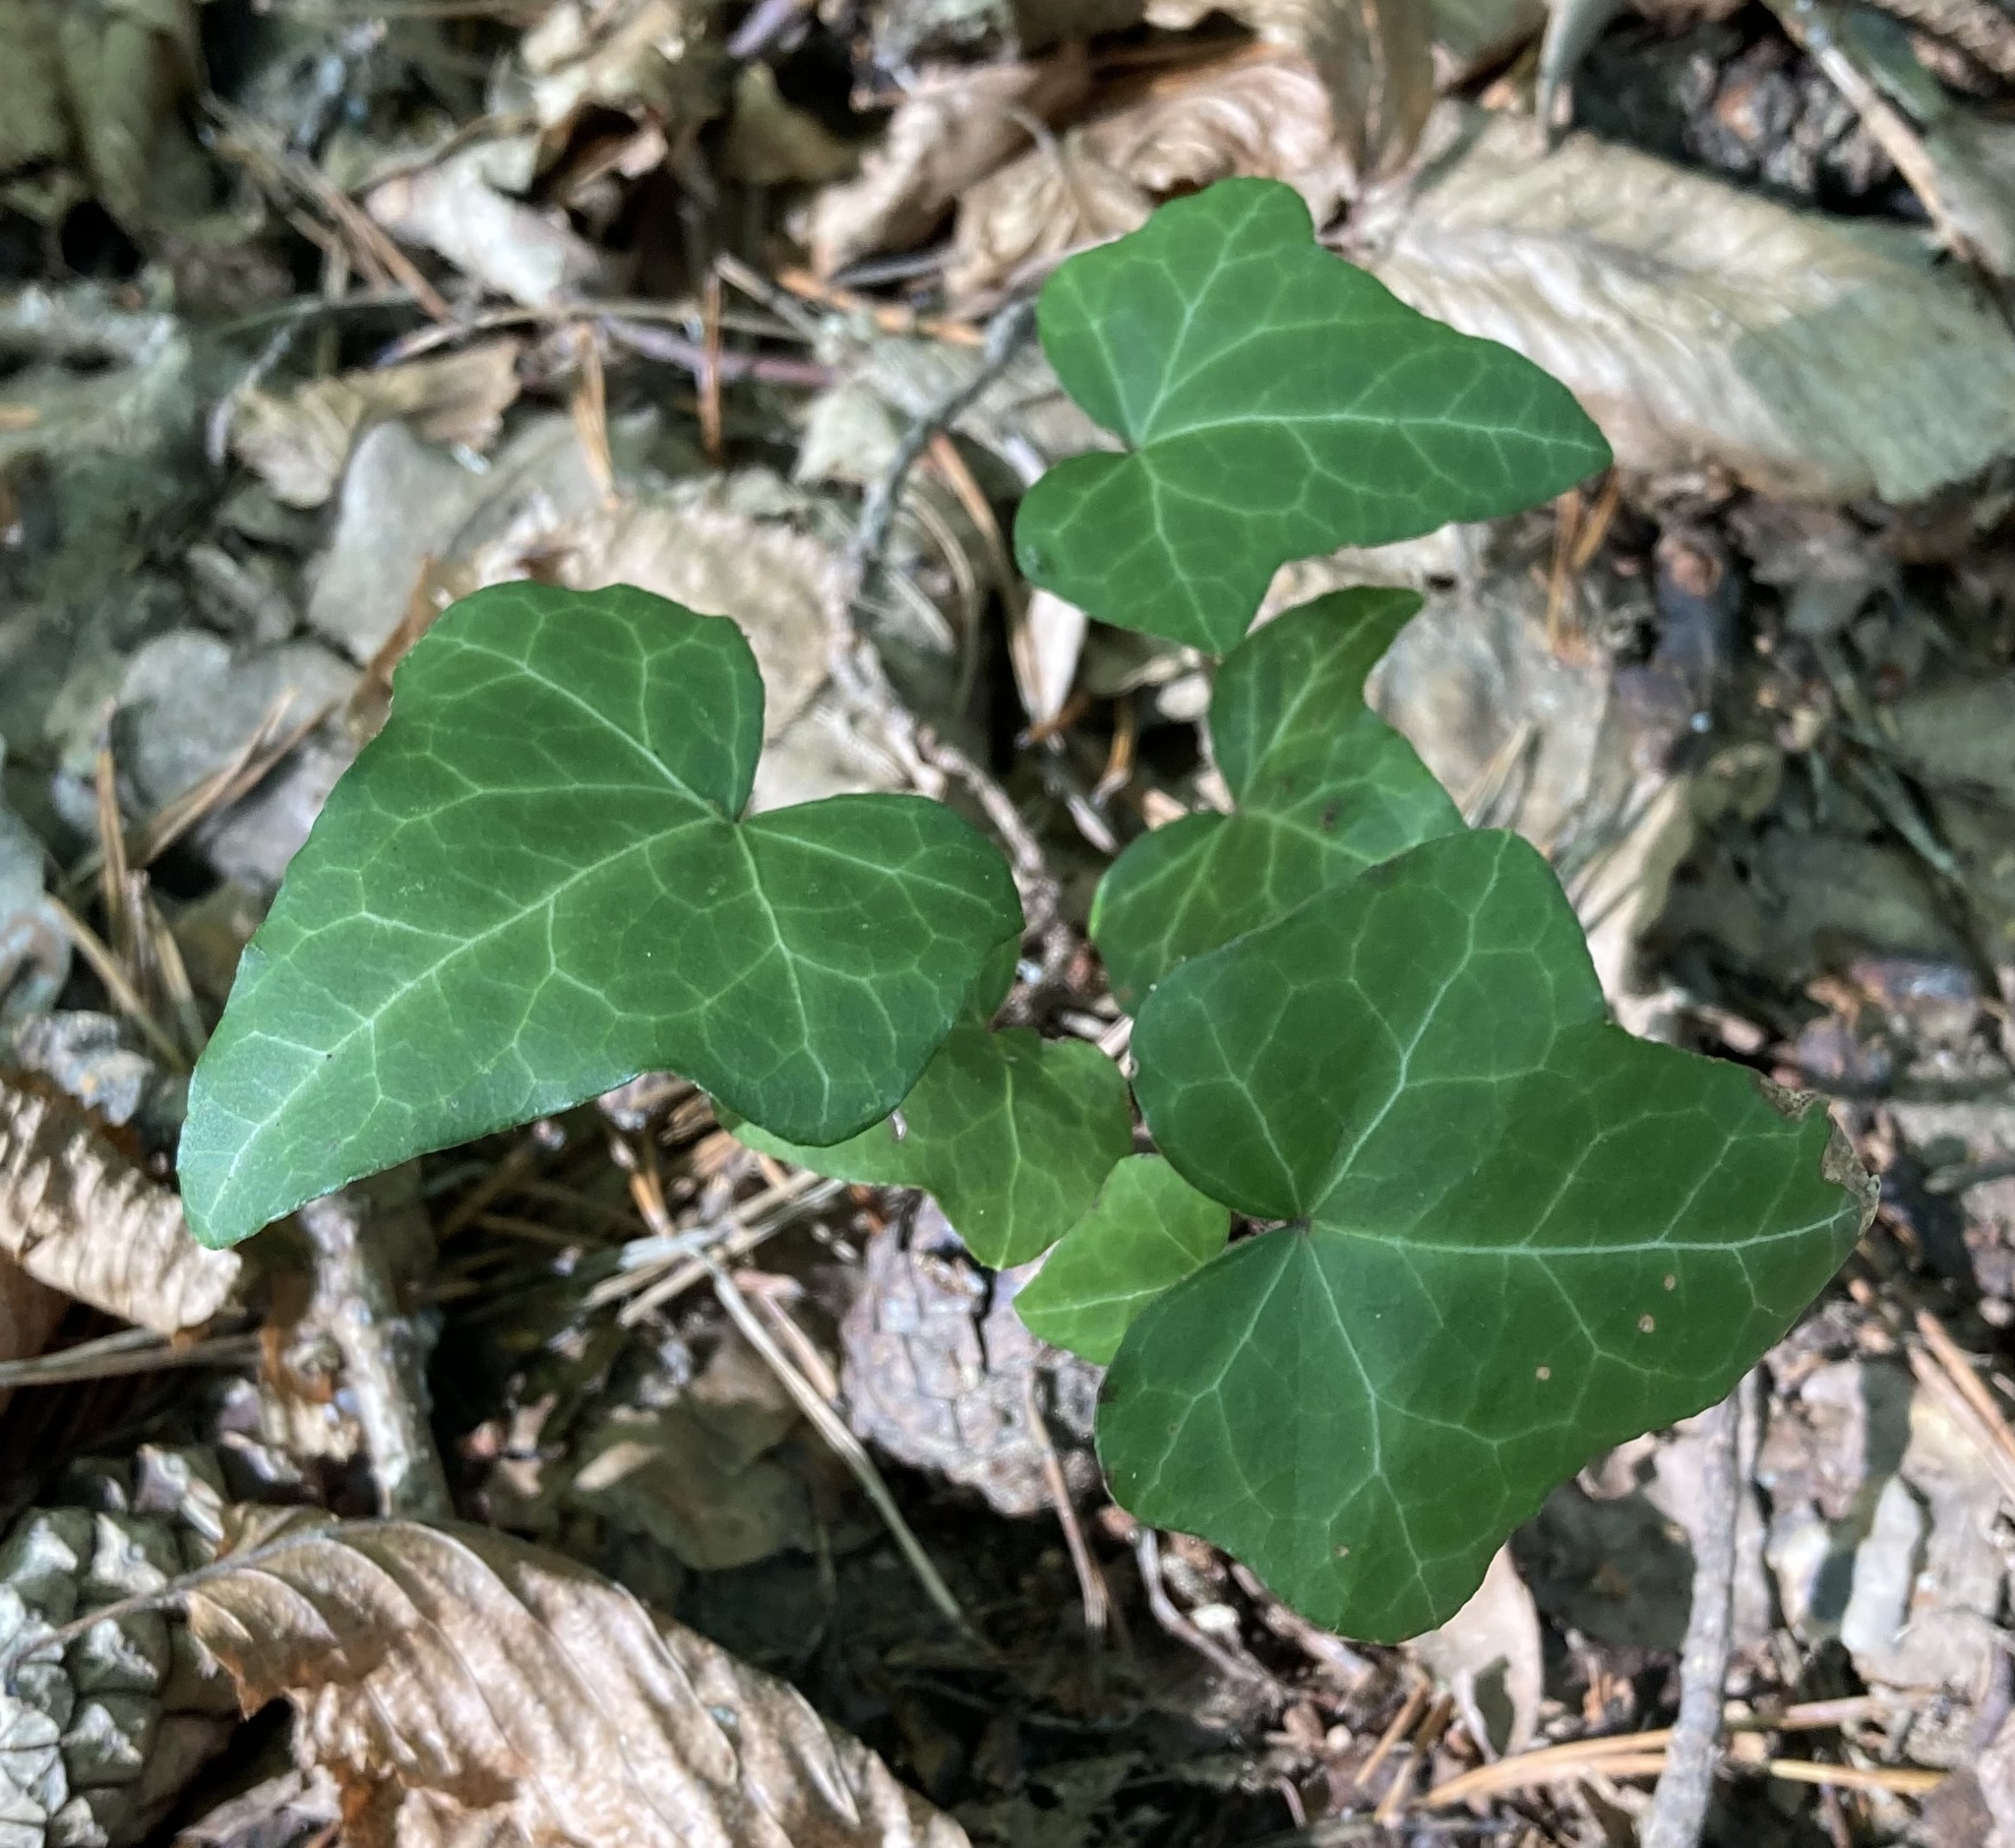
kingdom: Plantae
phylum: Tracheophyta
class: Magnoliopsida
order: Apiales
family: Araliaceae
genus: Hedera
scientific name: Hedera helix
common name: Ivy
